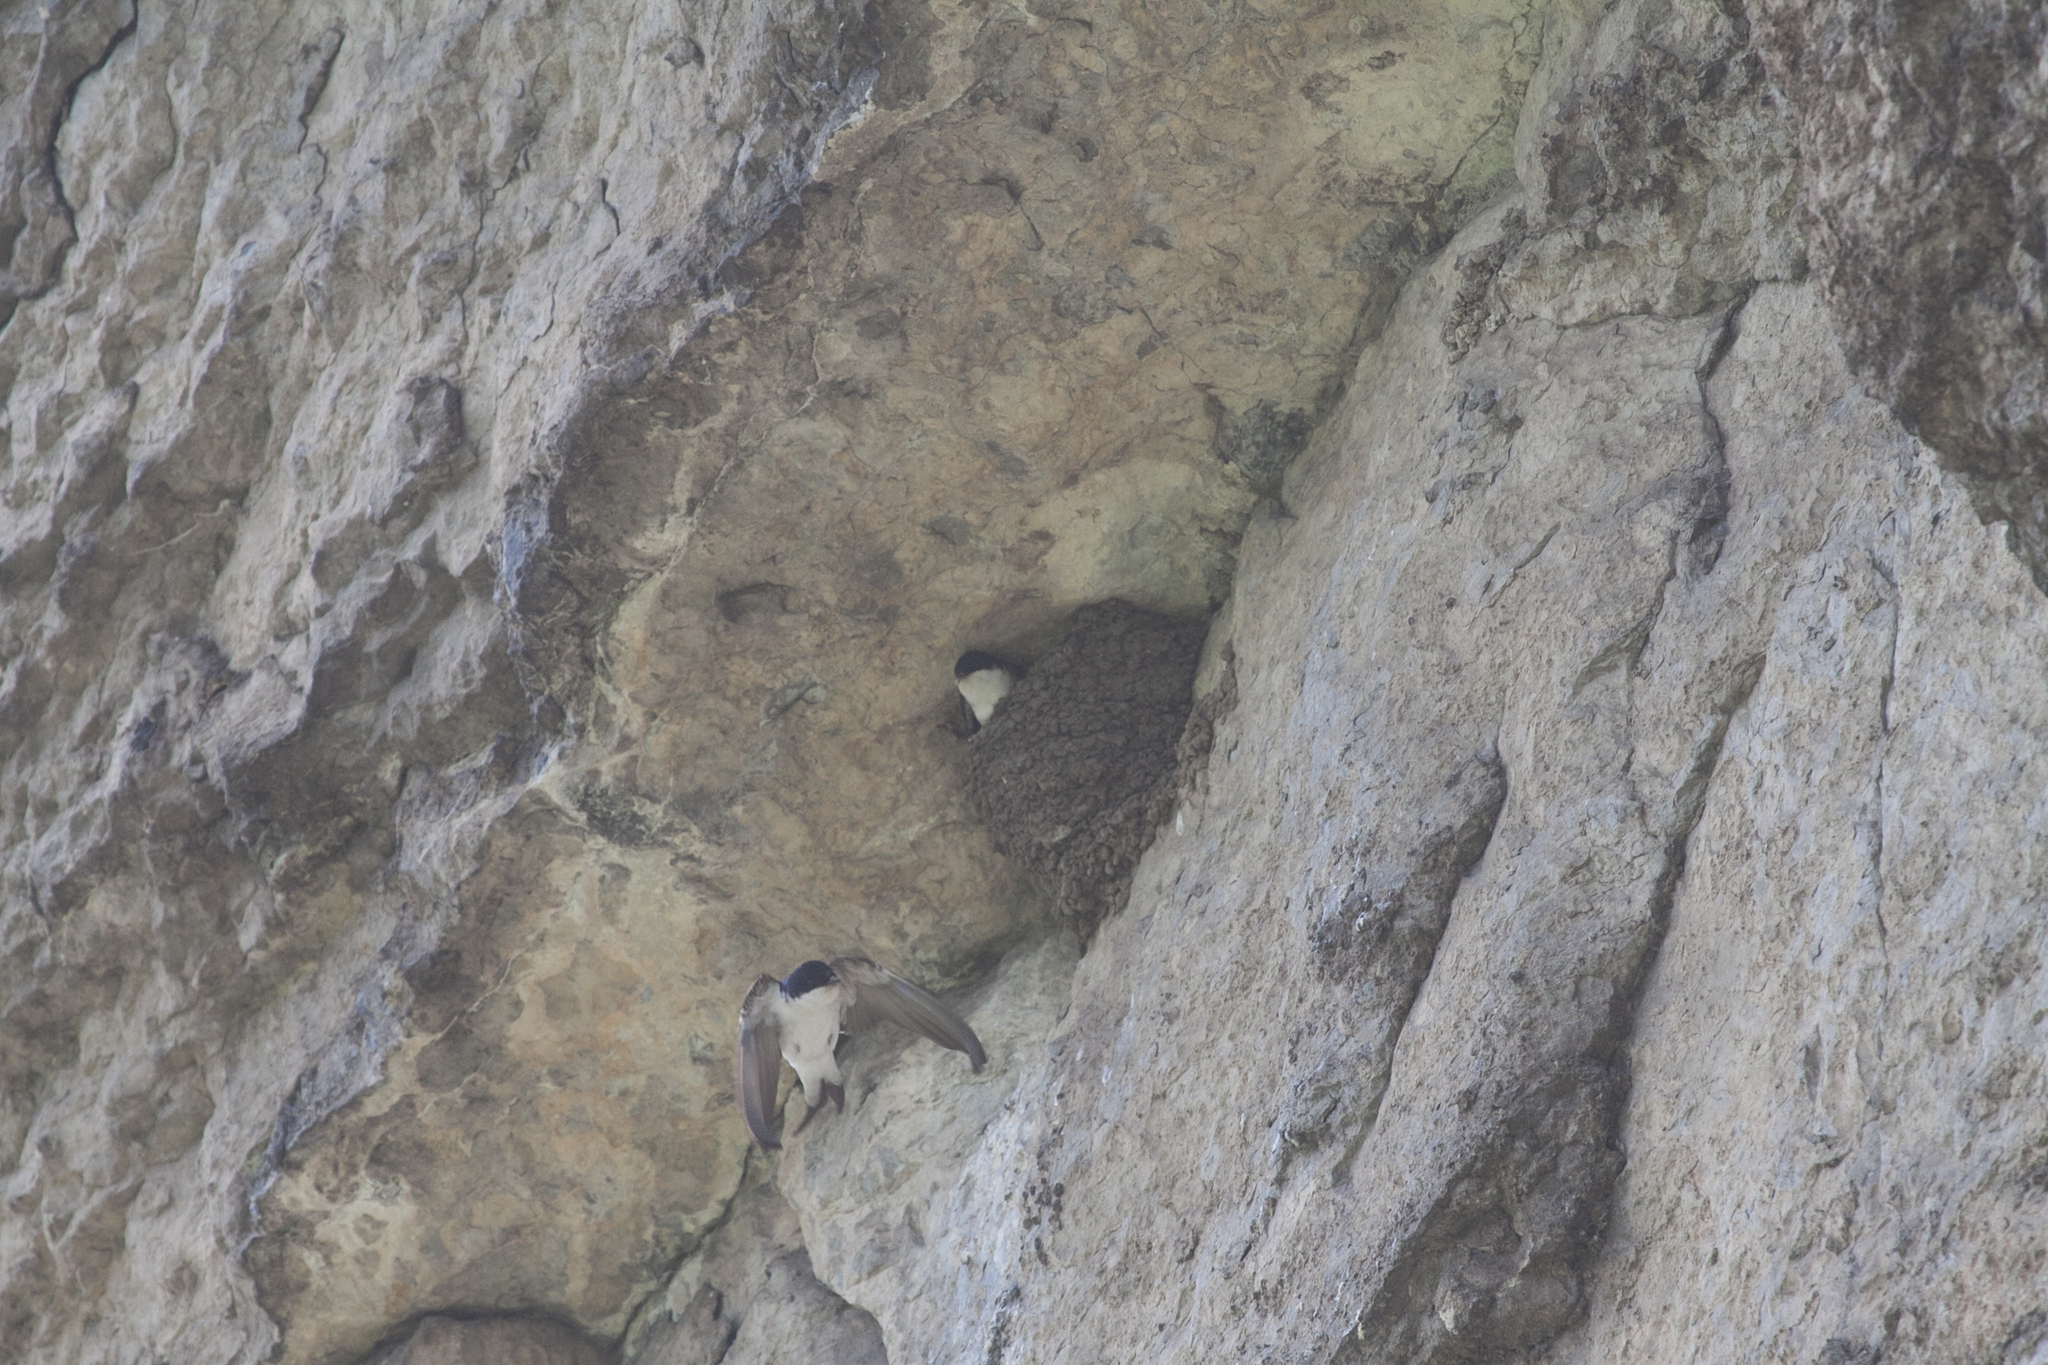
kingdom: Animalia
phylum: Chordata
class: Aves
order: Passeriformes
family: Hirundinidae
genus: Delichon
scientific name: Delichon urbicum
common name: Common house martin
